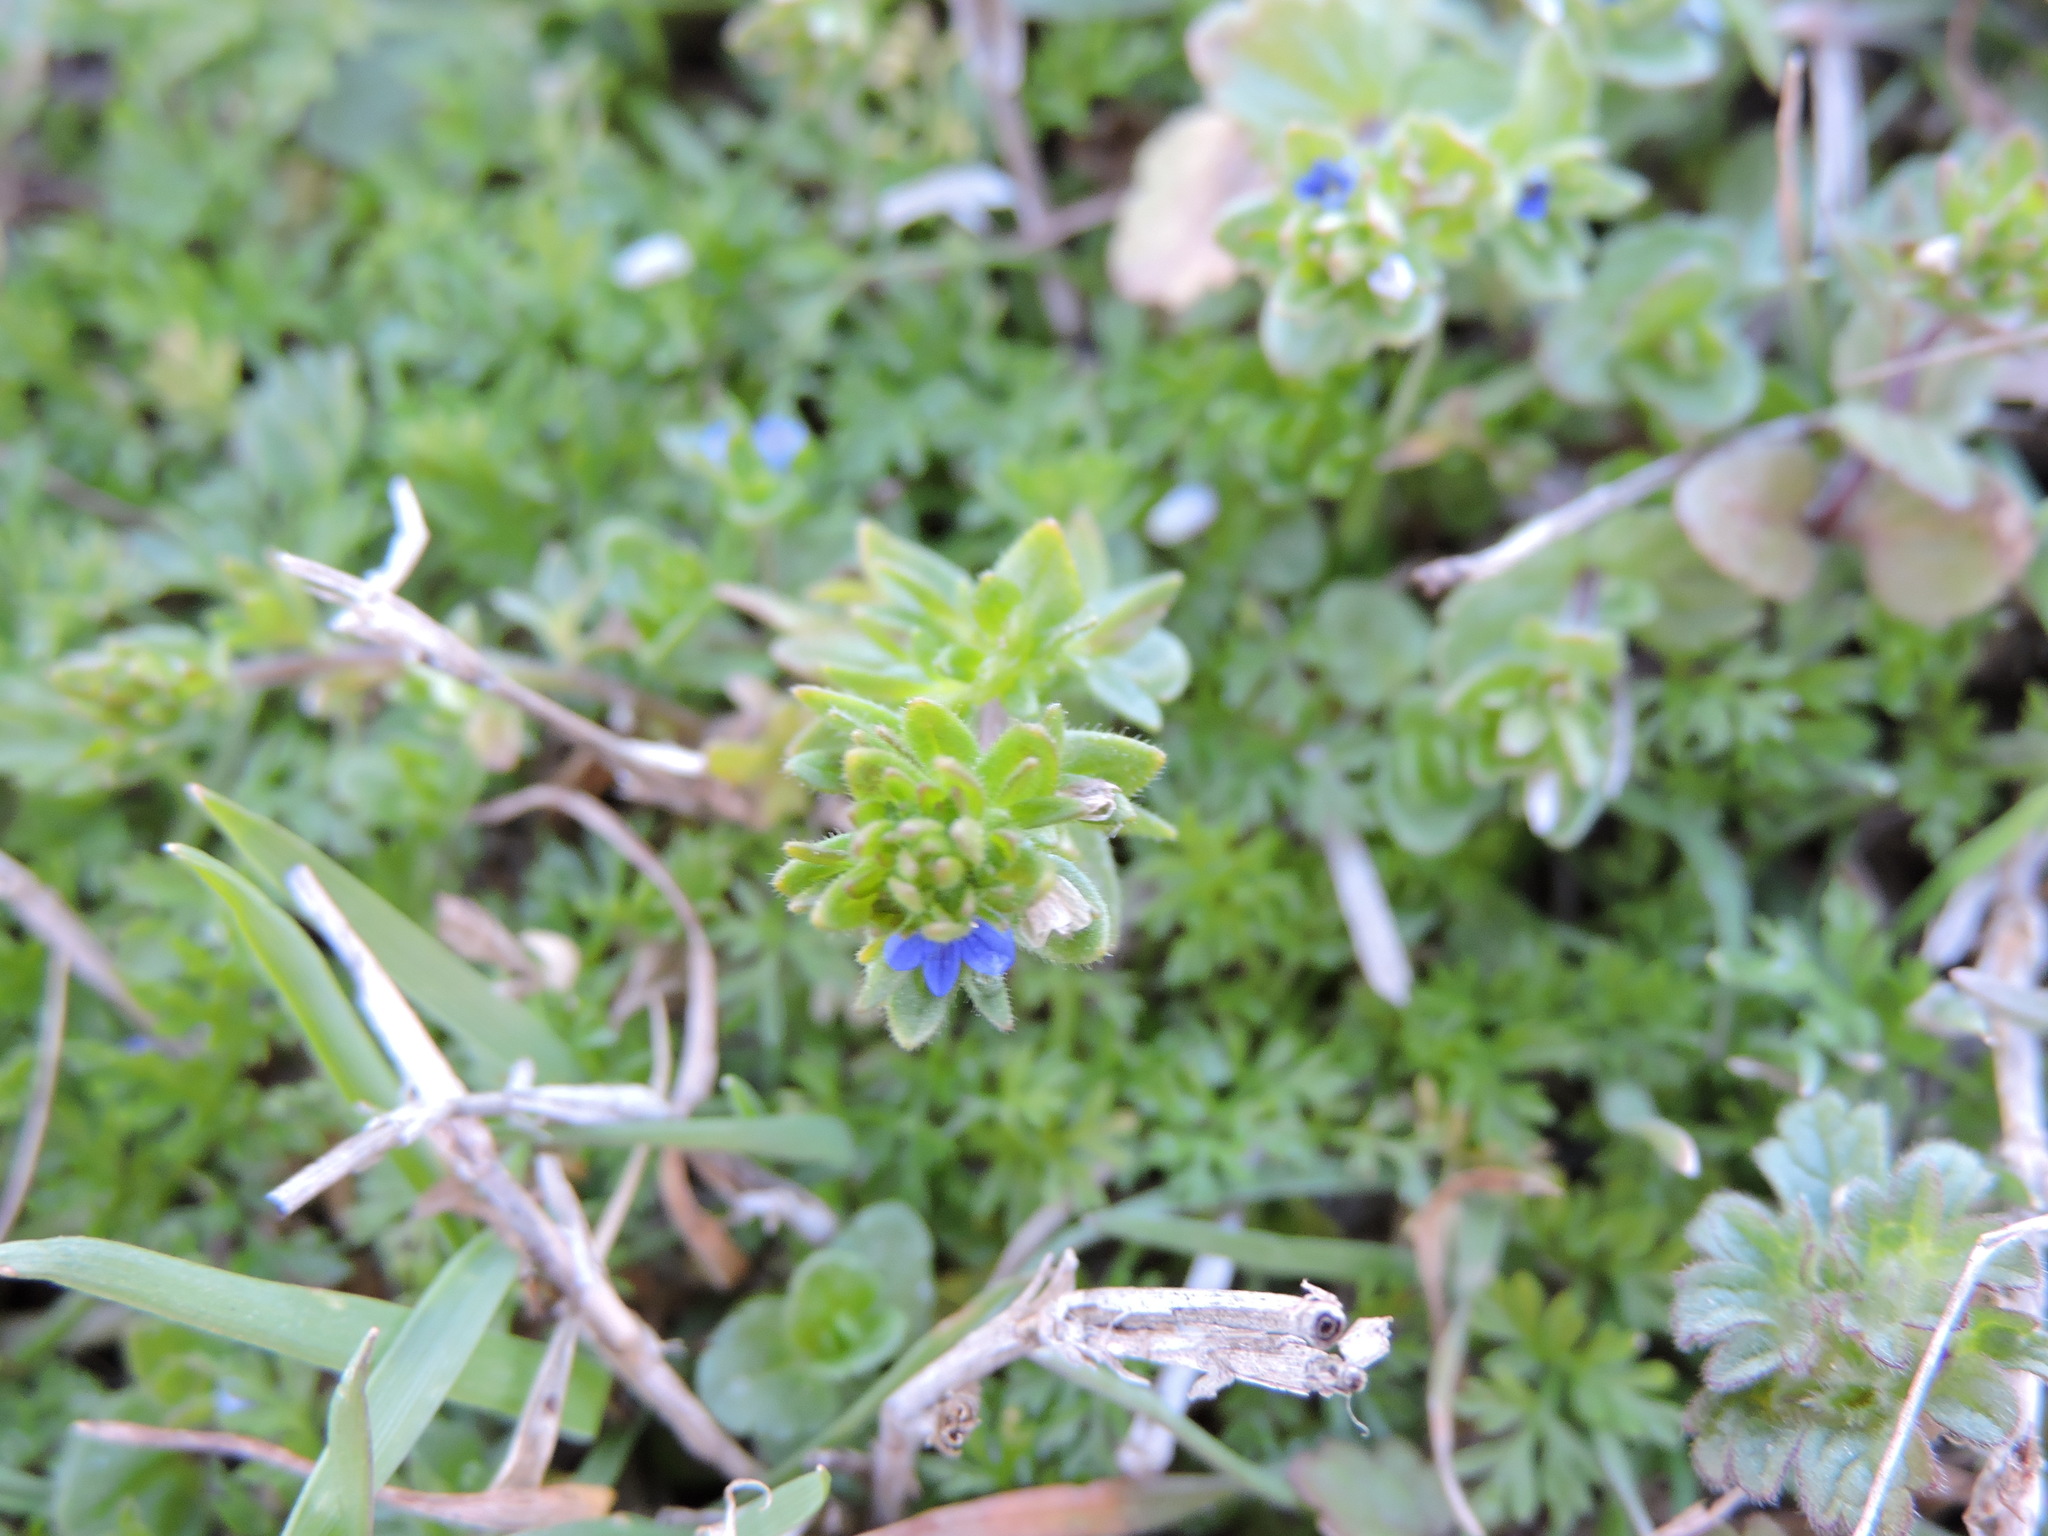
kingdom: Plantae
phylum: Tracheophyta
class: Magnoliopsida
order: Lamiales
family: Plantaginaceae
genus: Veronica
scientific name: Veronica arvensis
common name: Corn speedwell
